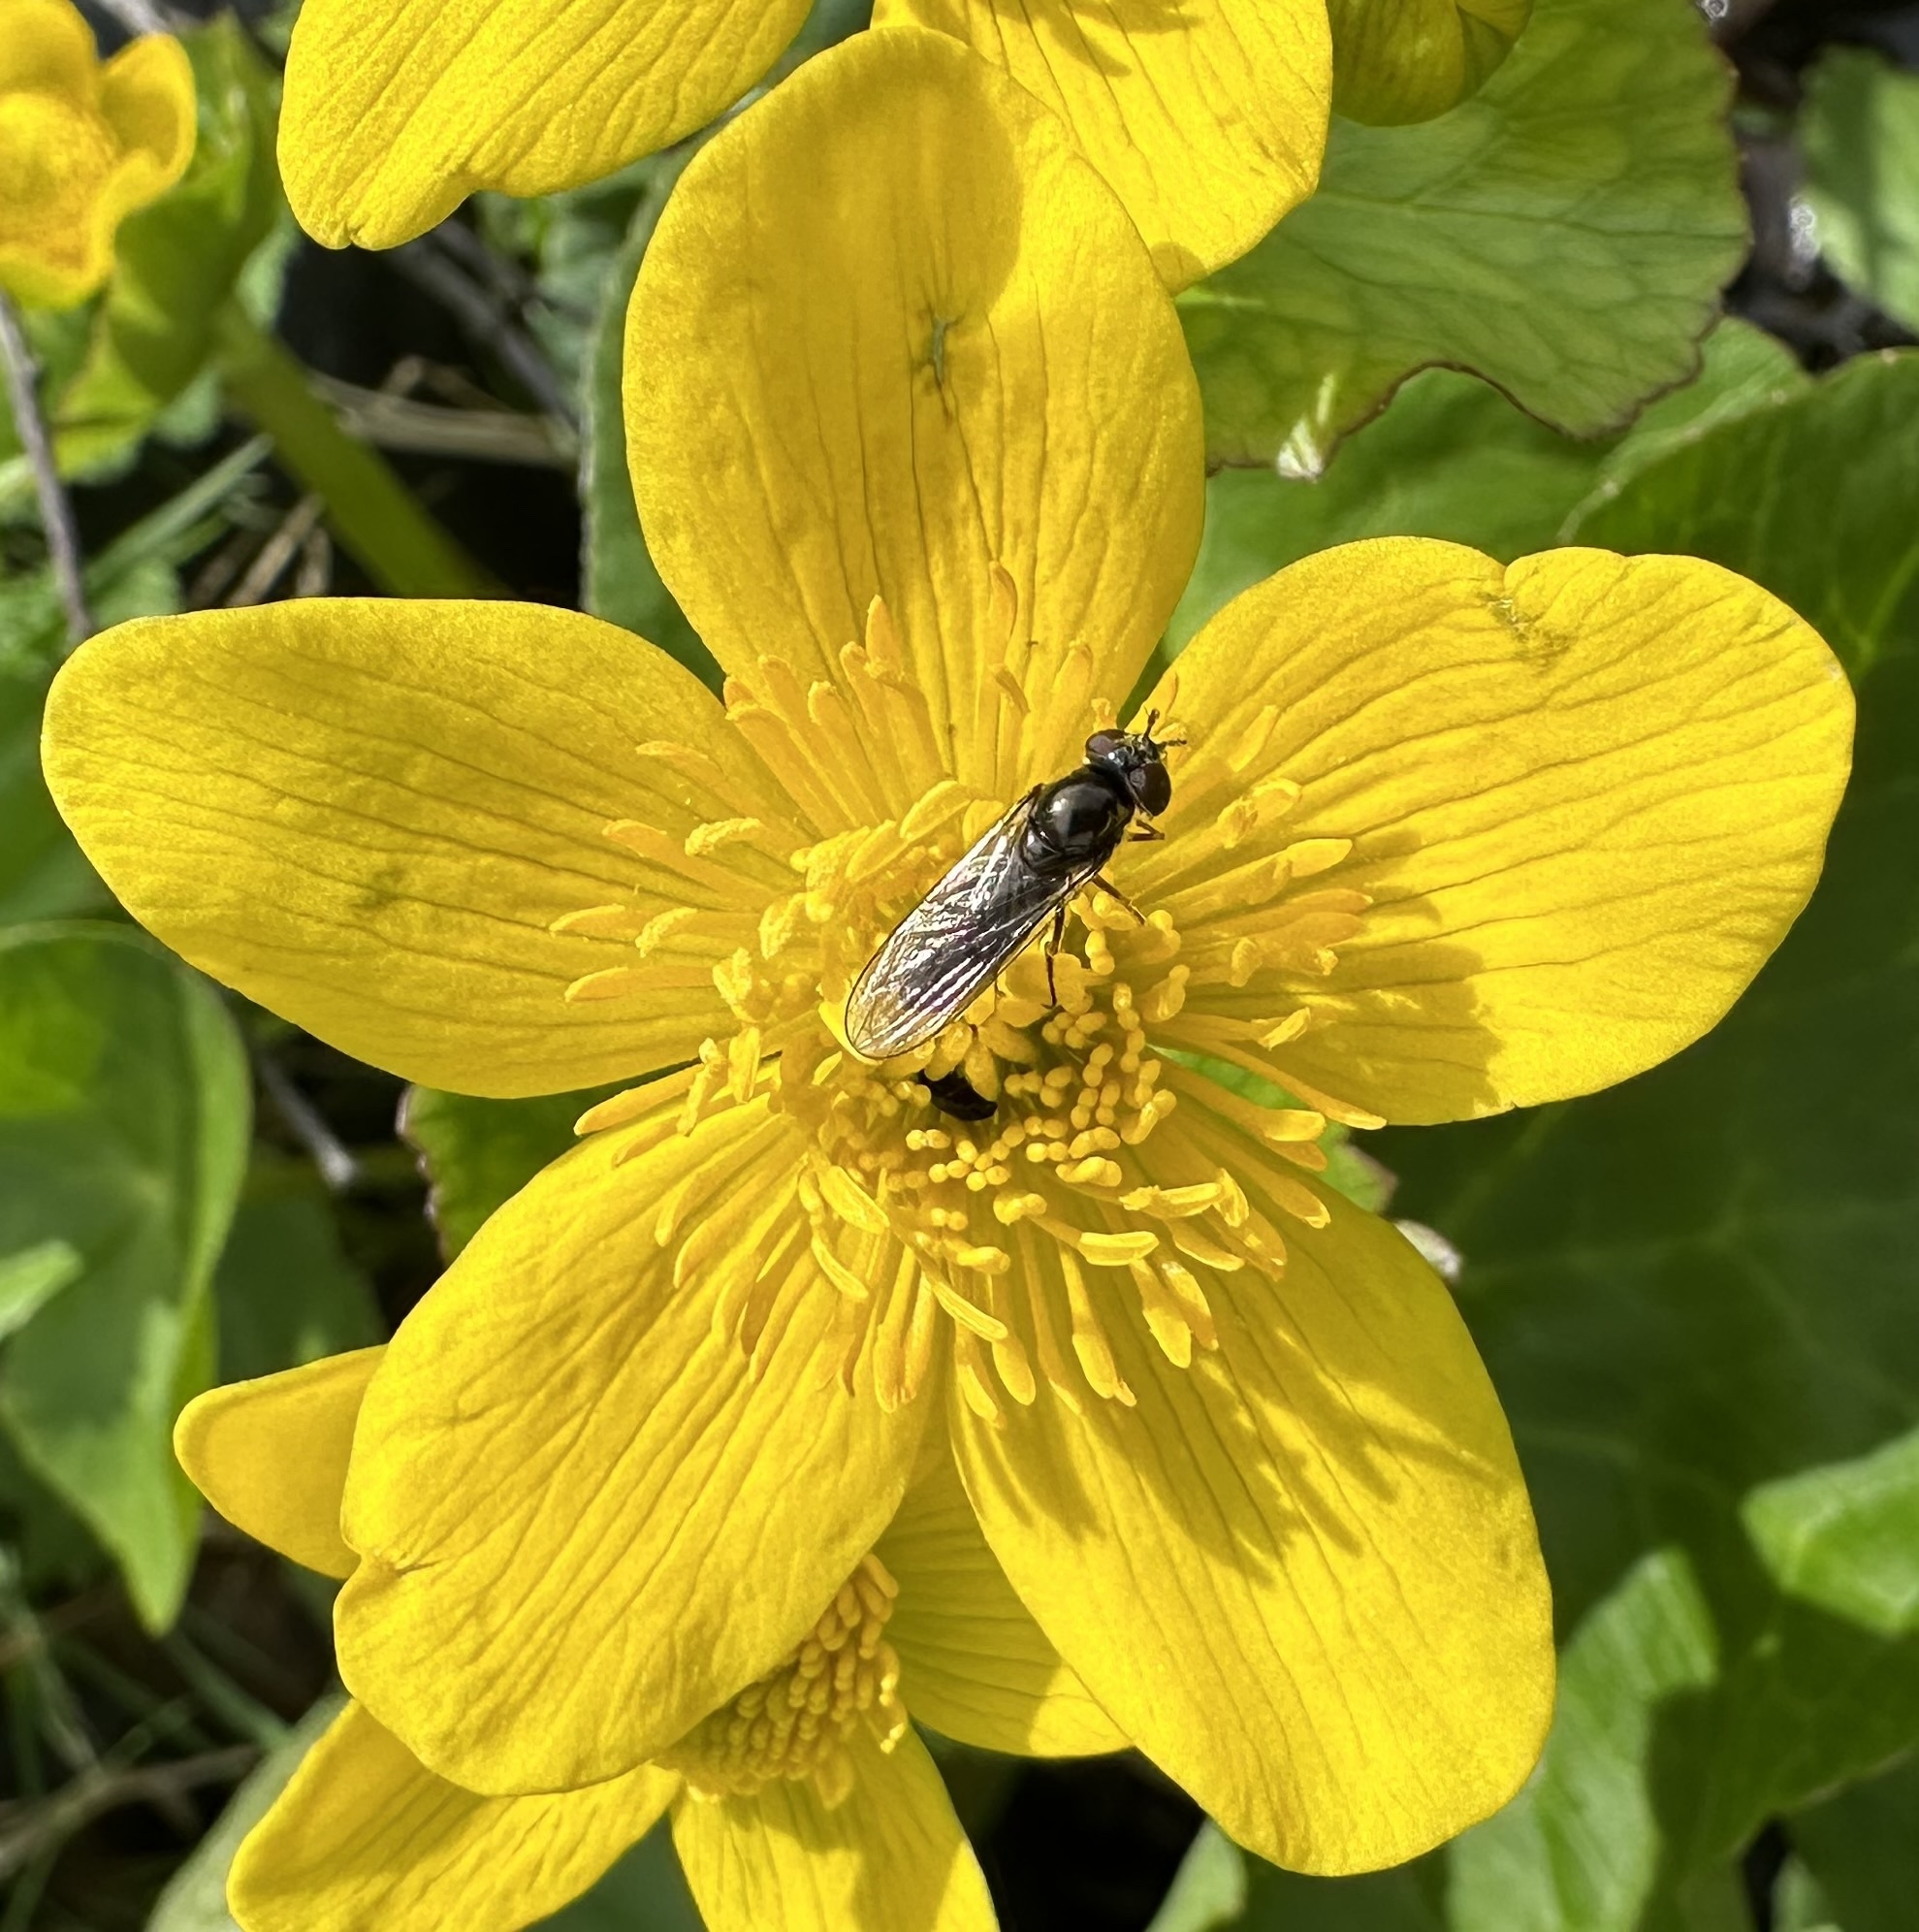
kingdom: Animalia
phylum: Arthropoda
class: Insecta
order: Diptera
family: Syrphidae
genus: Platycheirus
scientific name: Platycheirus albimanus
